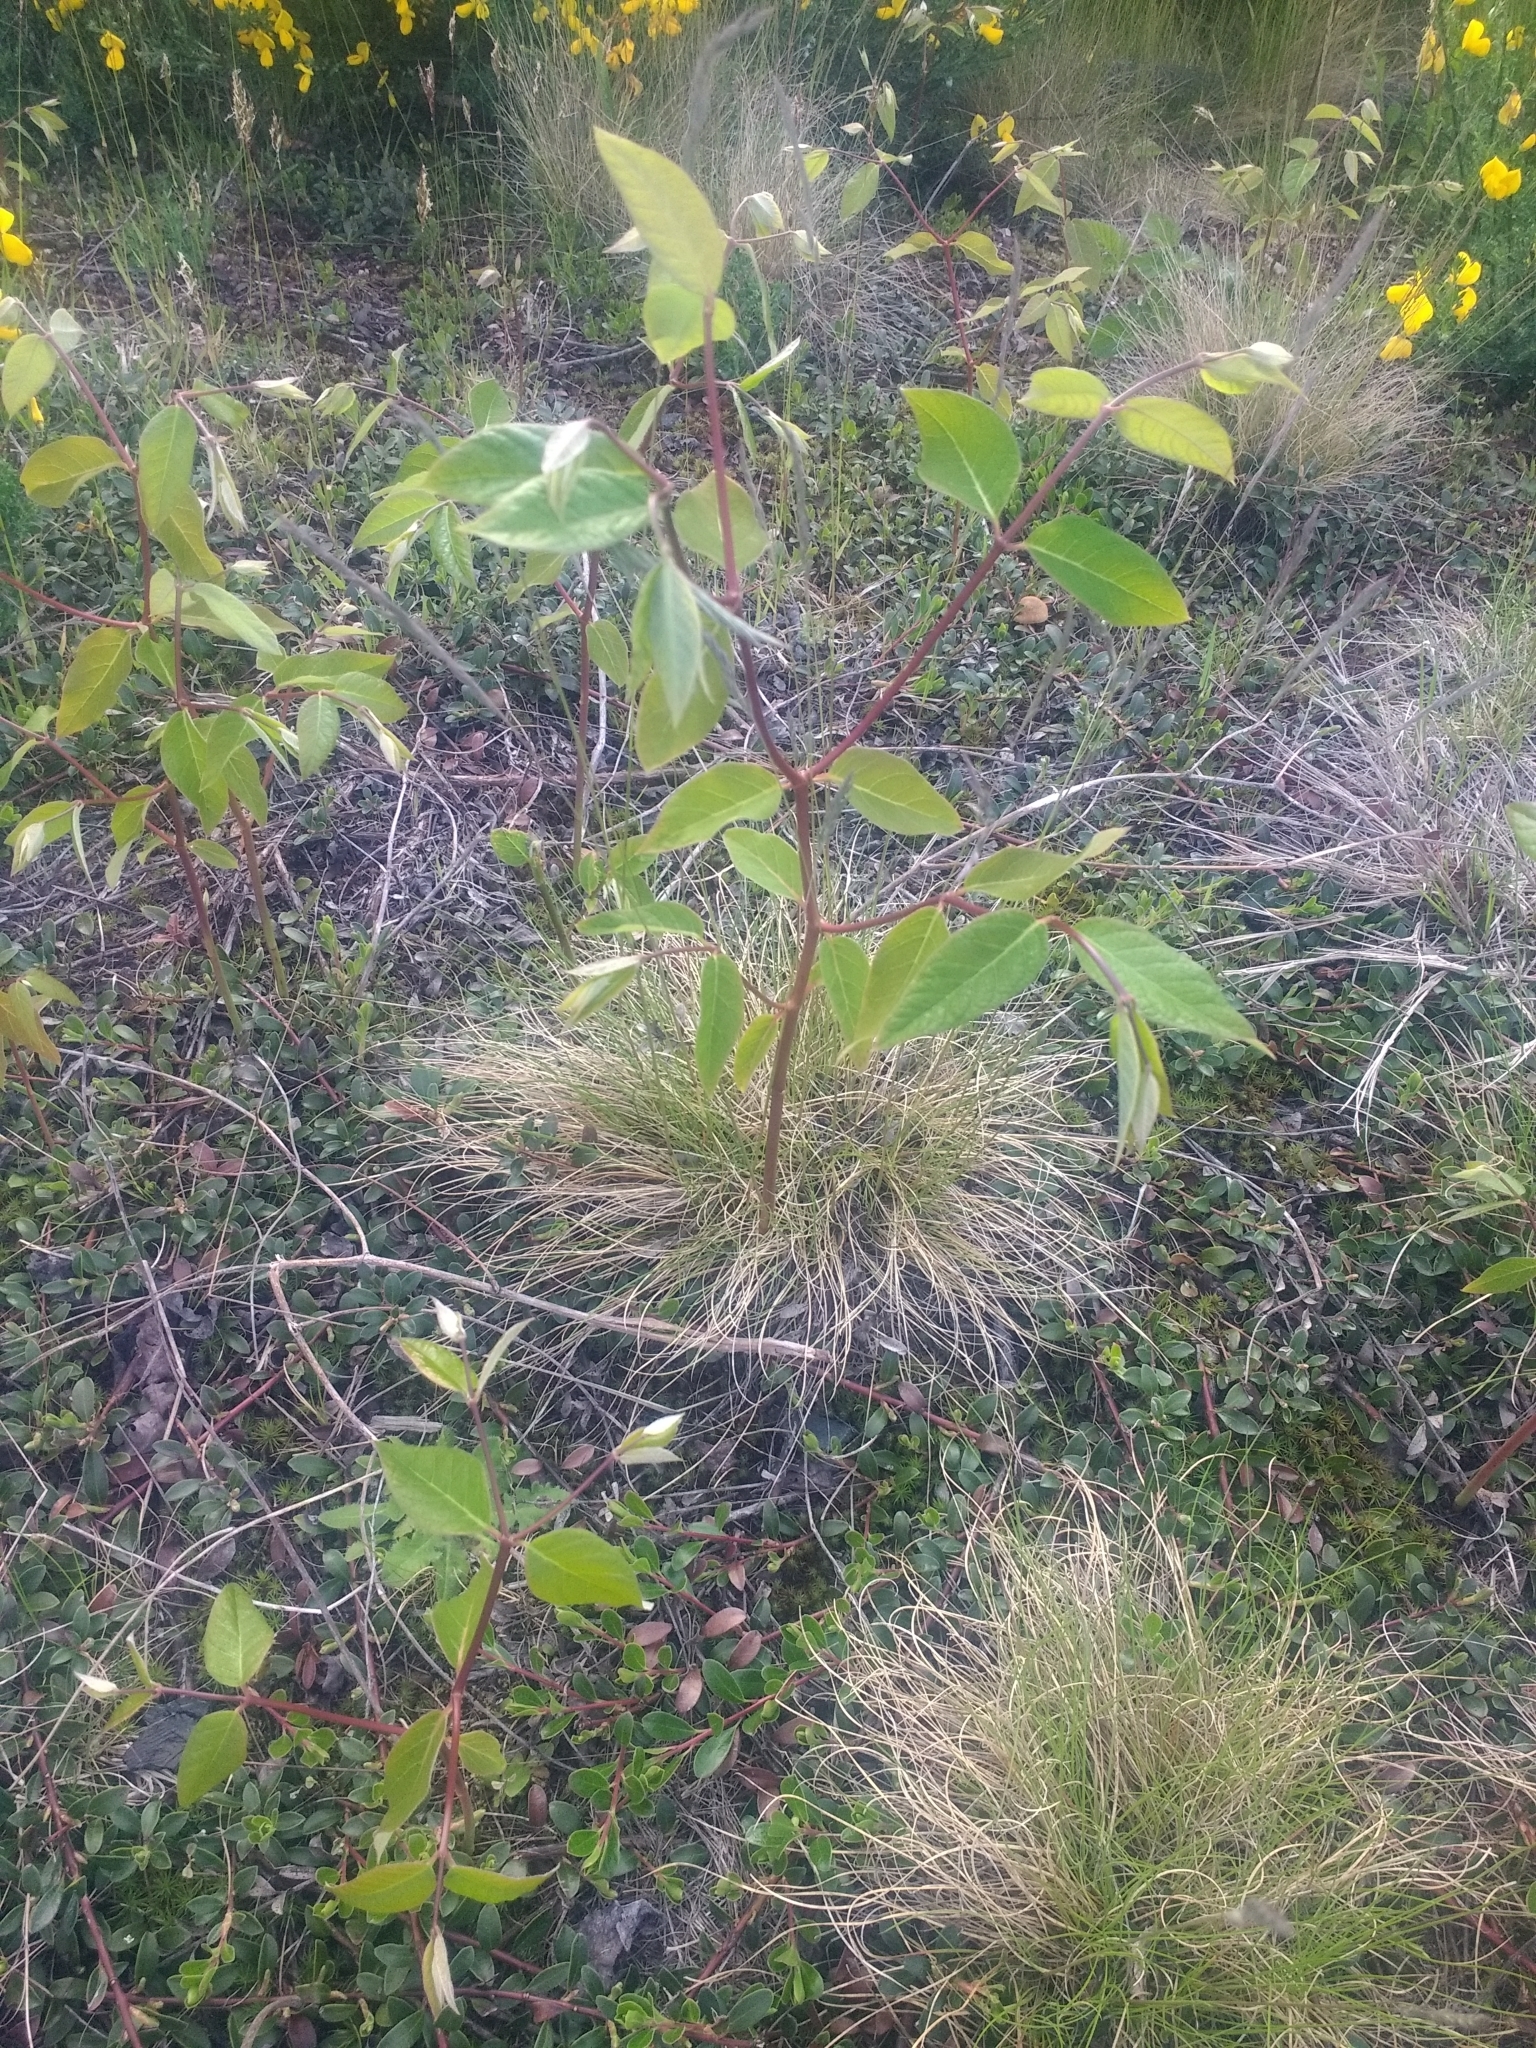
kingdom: Plantae
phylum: Tracheophyta
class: Magnoliopsida
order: Gentianales
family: Apocynaceae
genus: Apocynum
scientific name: Apocynum androsaemifolium
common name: Spreading dogbane
